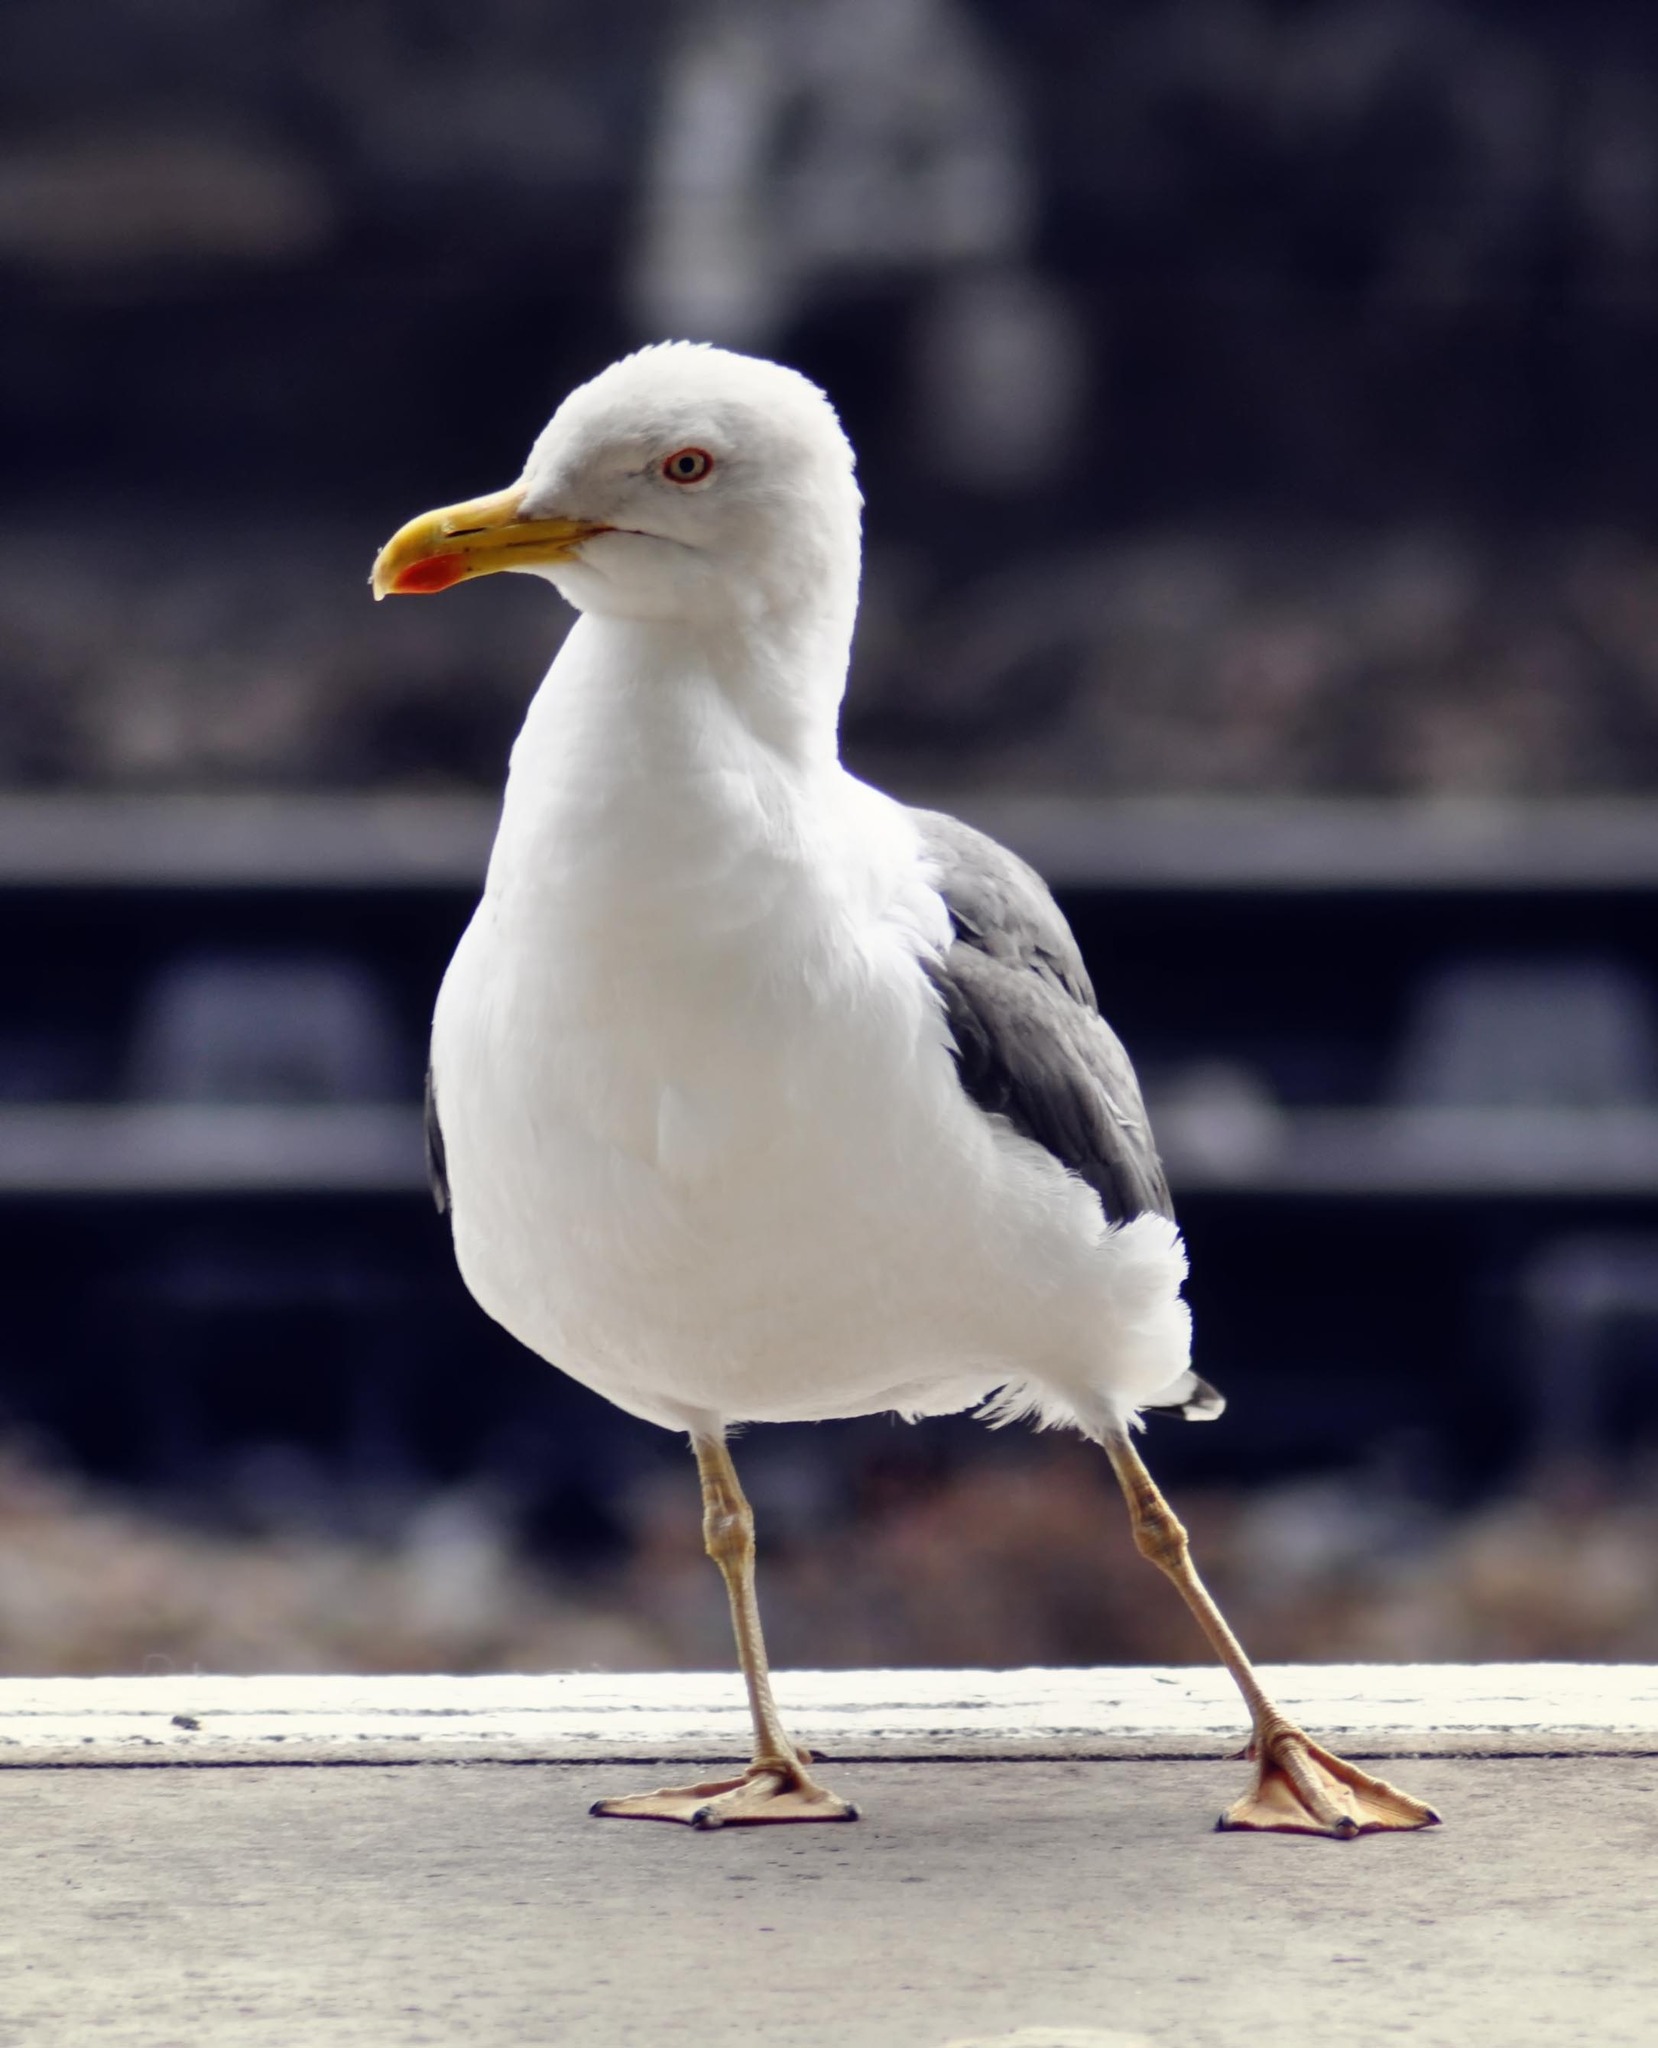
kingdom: Animalia
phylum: Chordata
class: Aves
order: Charadriiformes
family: Laridae
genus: Larus
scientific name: Larus fuscus
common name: Lesser black-backed gull
